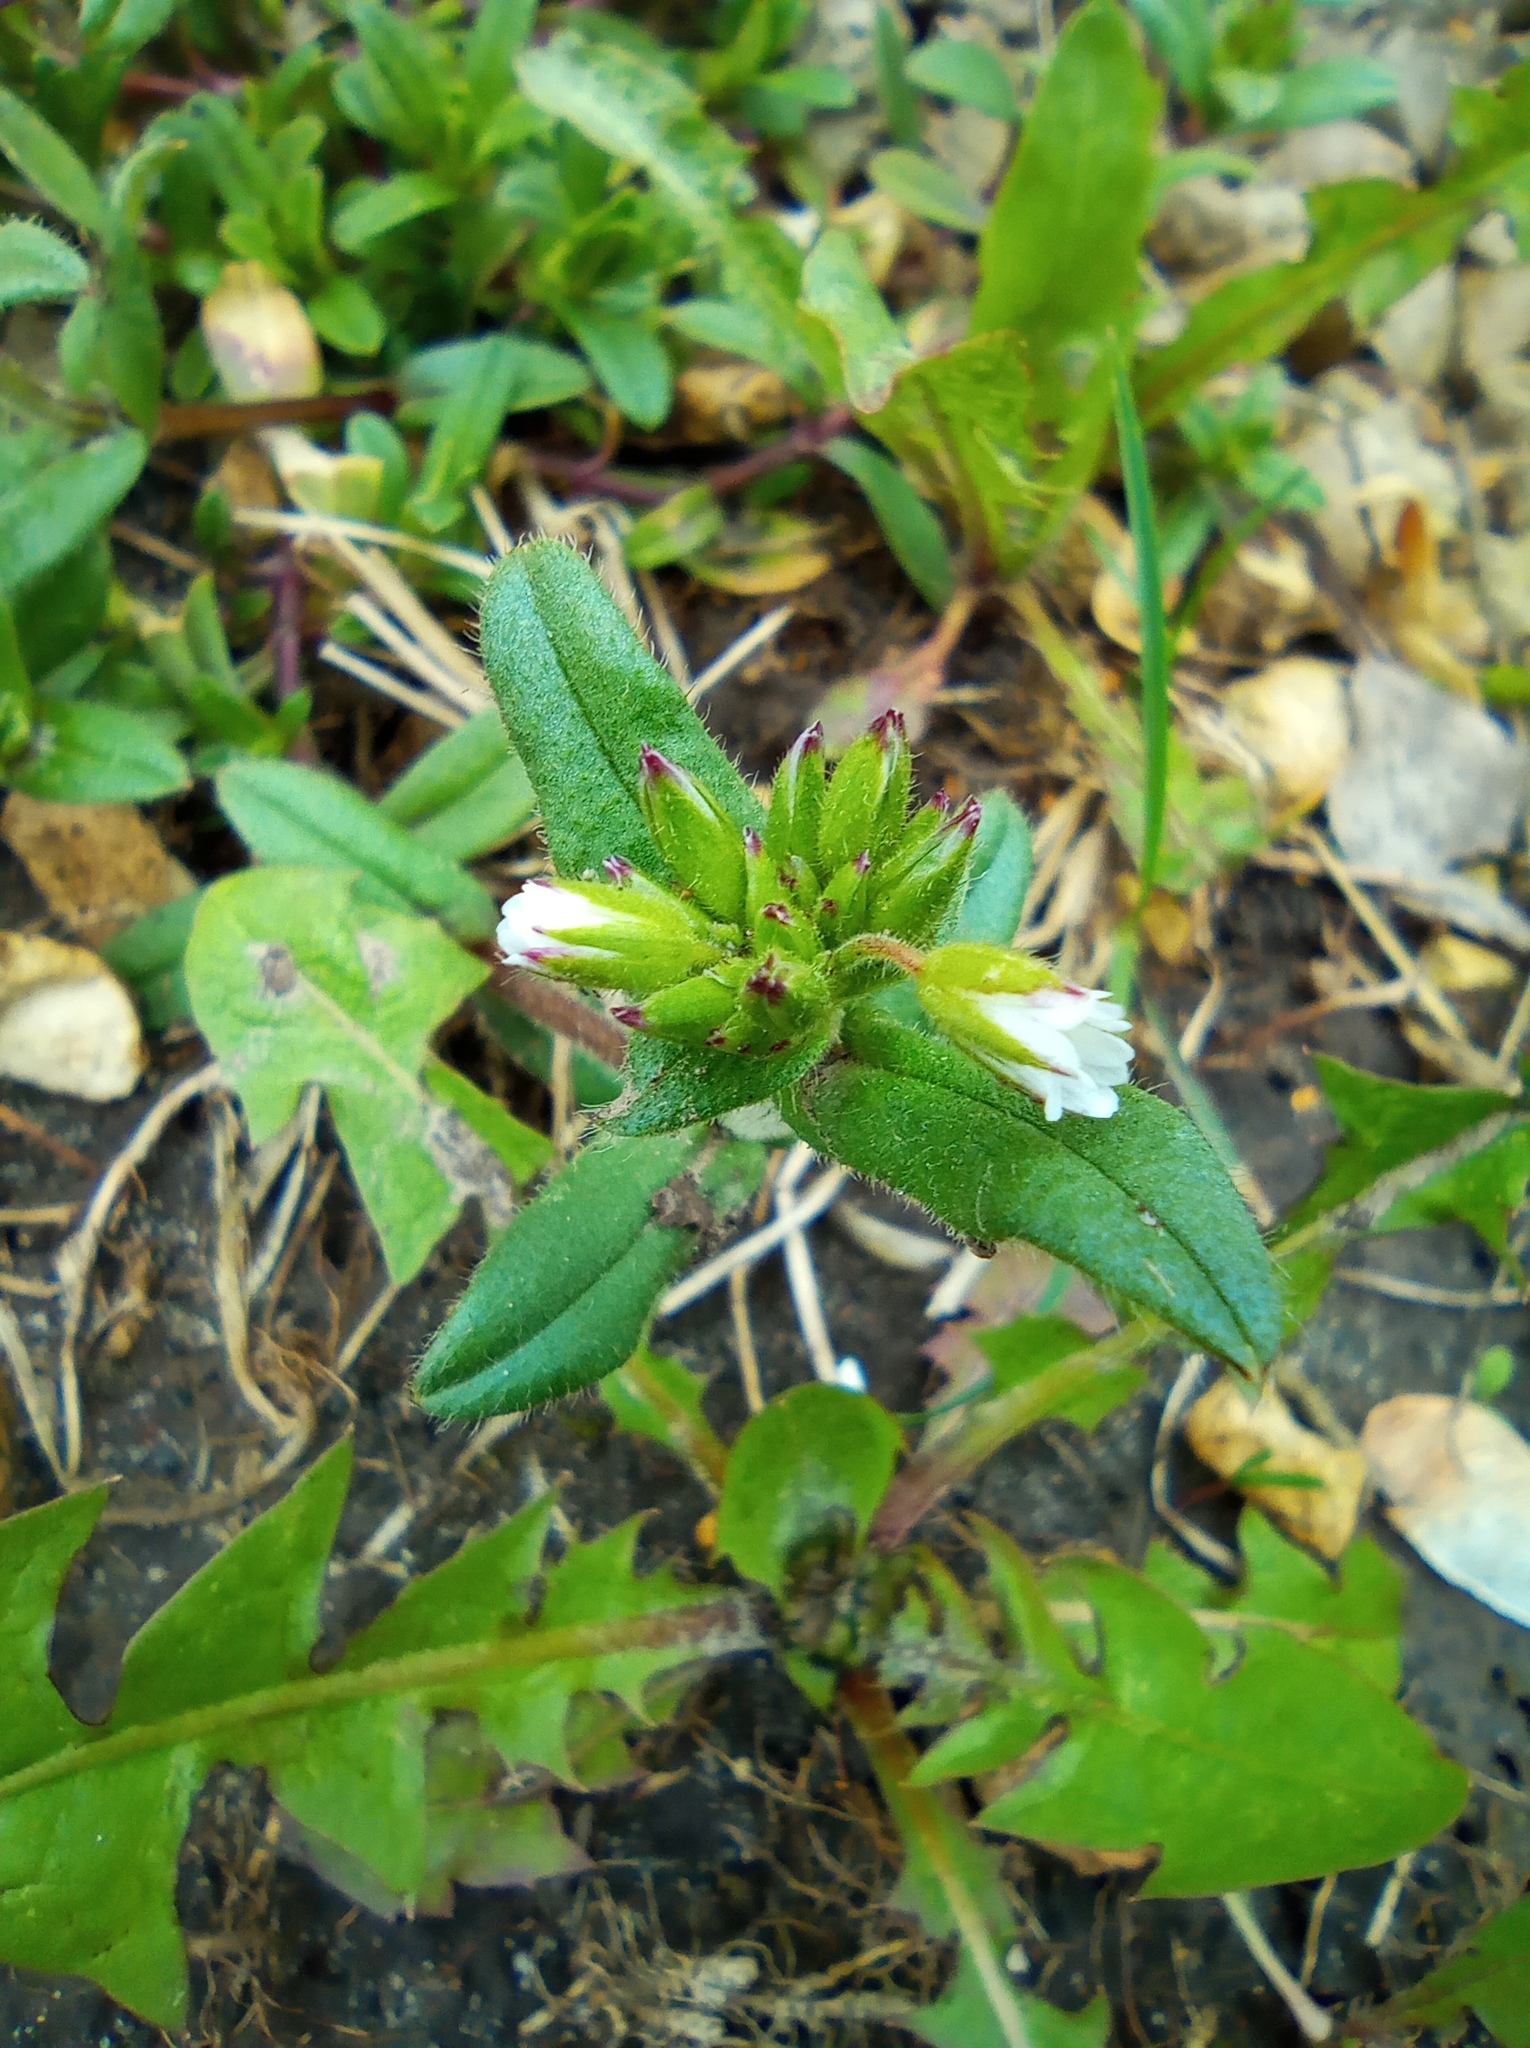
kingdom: Plantae
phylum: Tracheophyta
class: Magnoliopsida
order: Caryophyllales
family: Caryophyllaceae
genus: Cerastium
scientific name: Cerastium holosteoides
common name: Big chickweed
